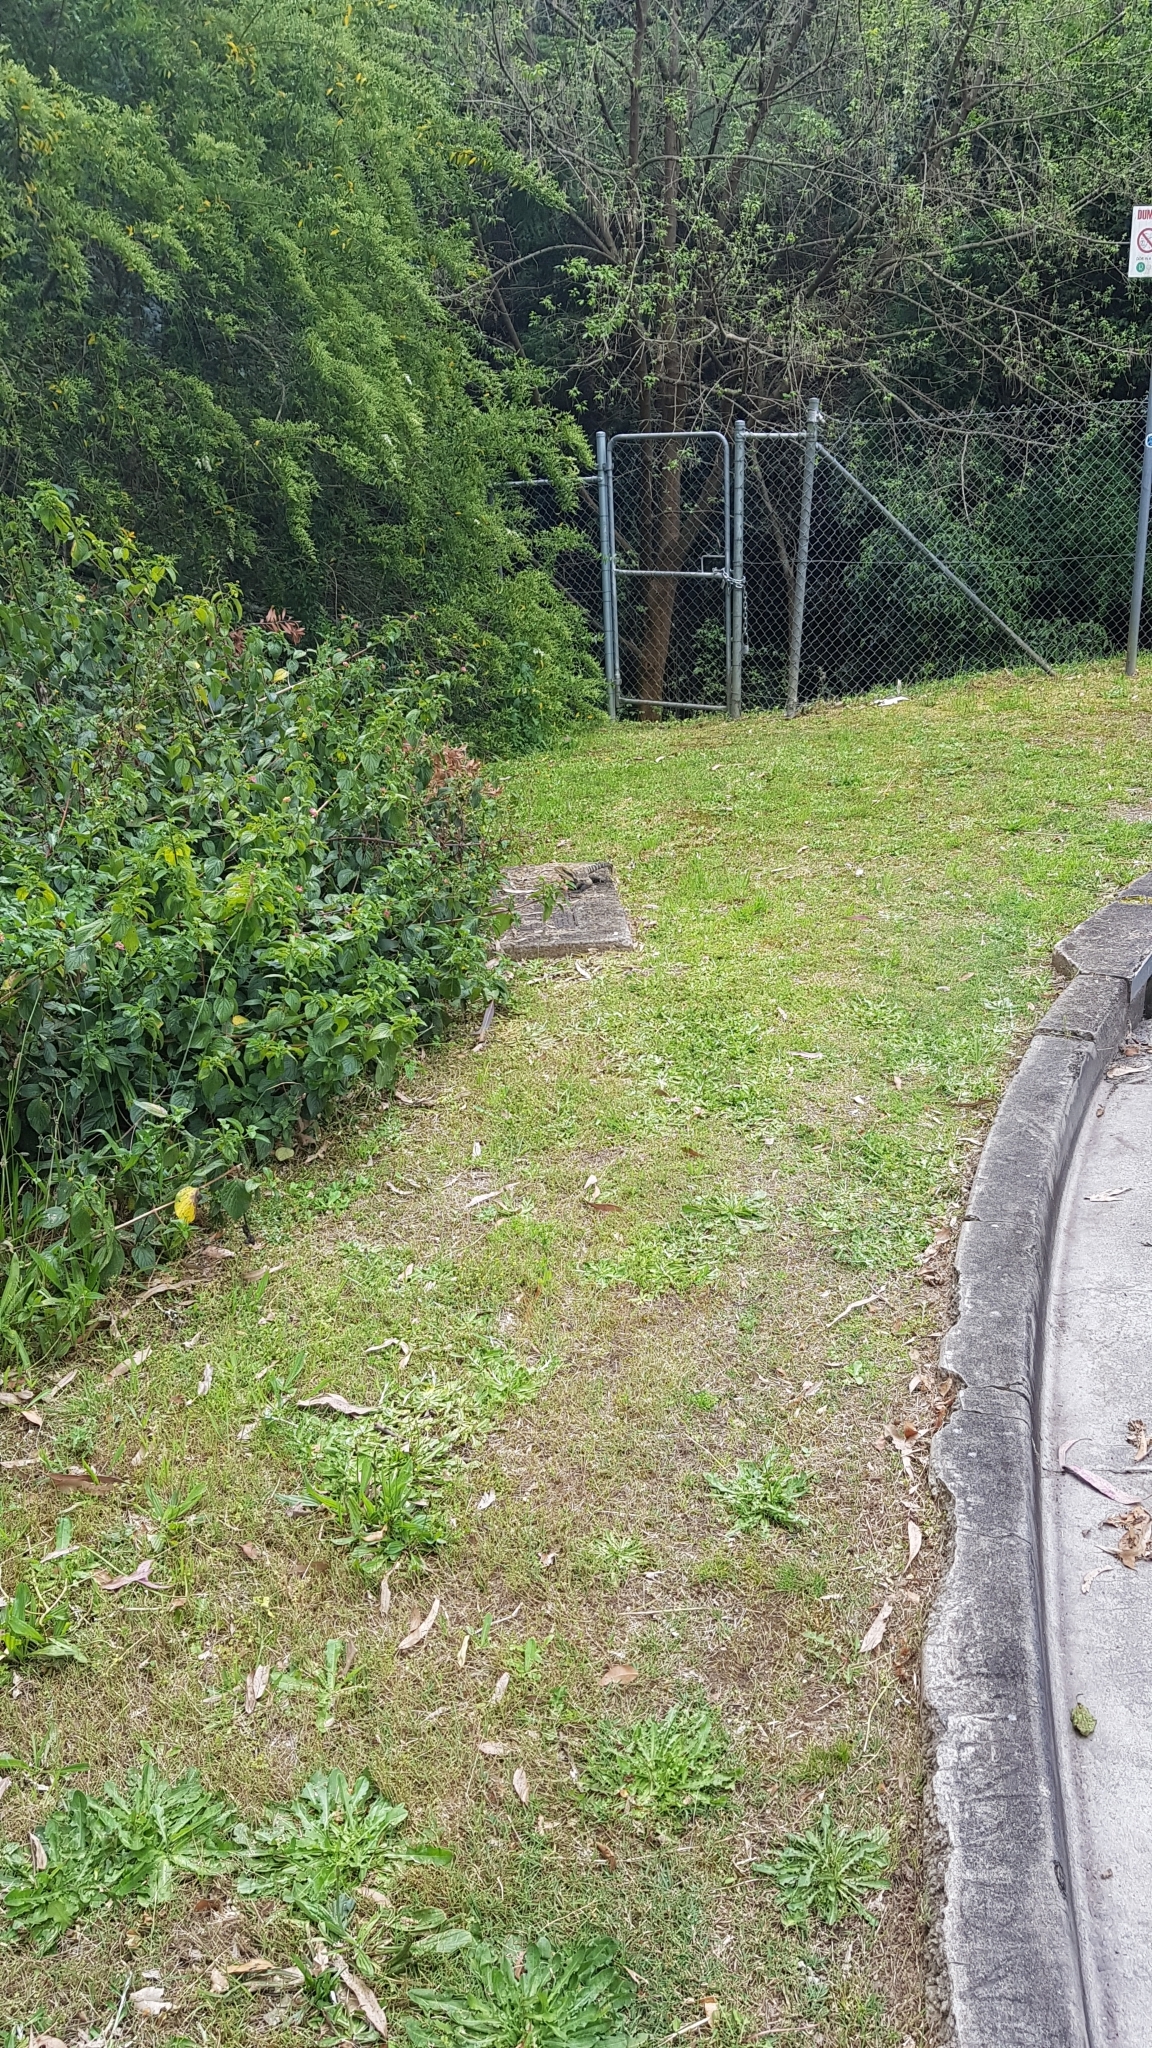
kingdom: Animalia
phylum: Chordata
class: Squamata
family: Agamidae
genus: Intellagama
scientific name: Intellagama lesueurii
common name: Eastern water dragon
